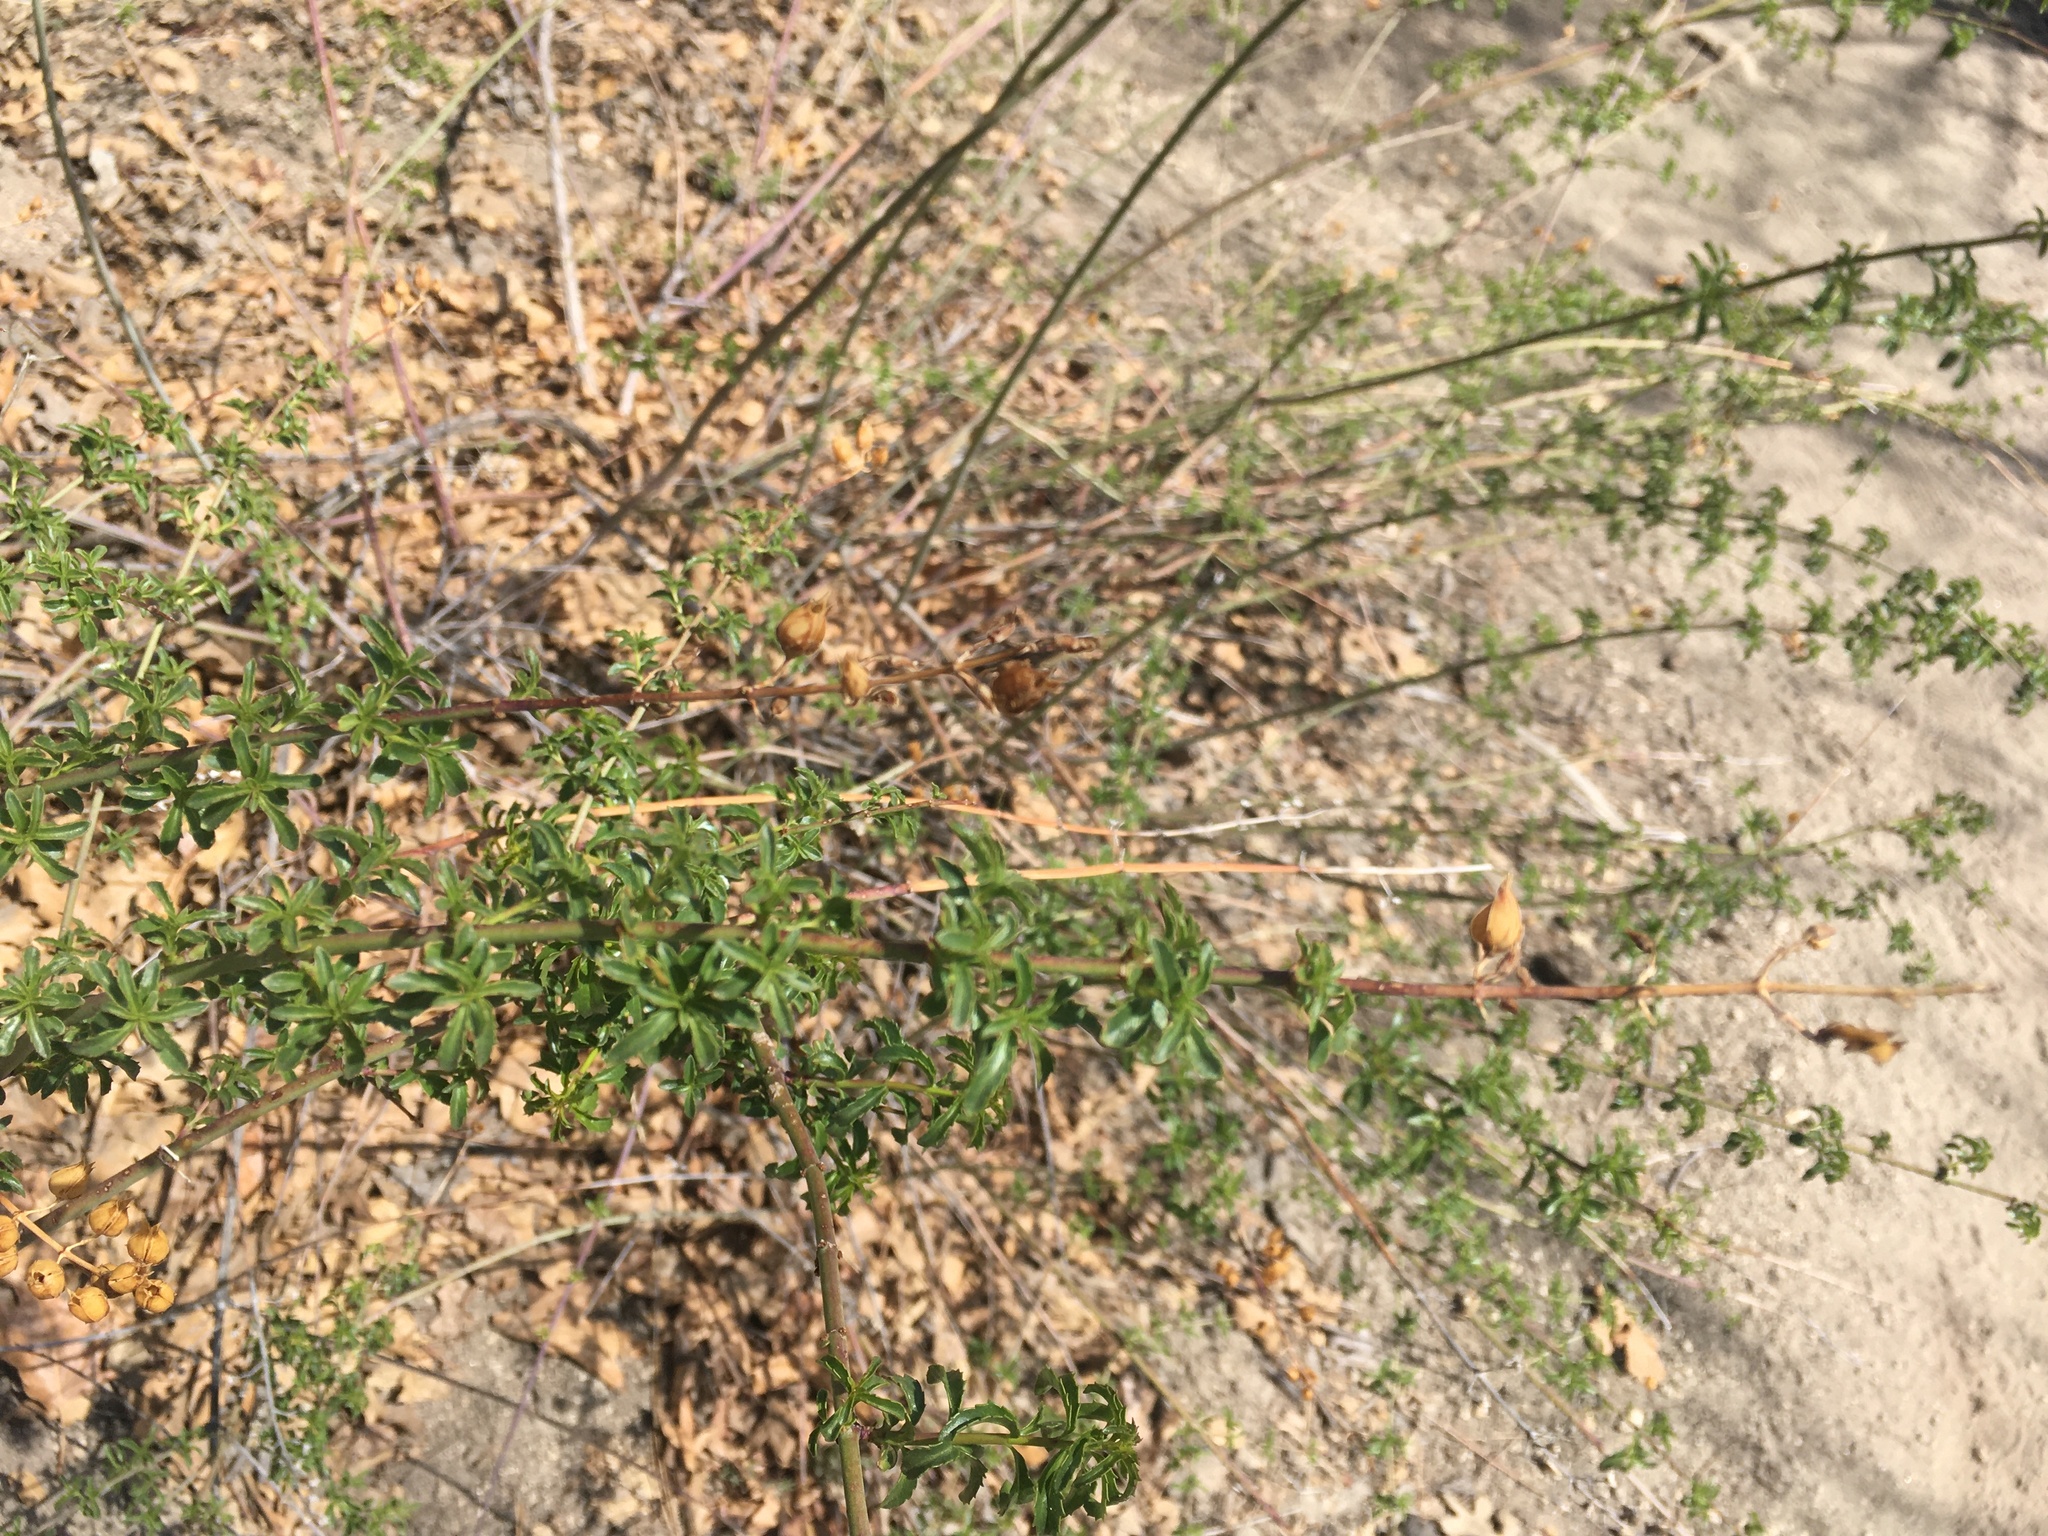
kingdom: Plantae
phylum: Tracheophyta
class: Magnoliopsida
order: Lamiales
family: Plantaginaceae
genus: Keckiella
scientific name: Keckiella ternata
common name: Scarlet keckiella
